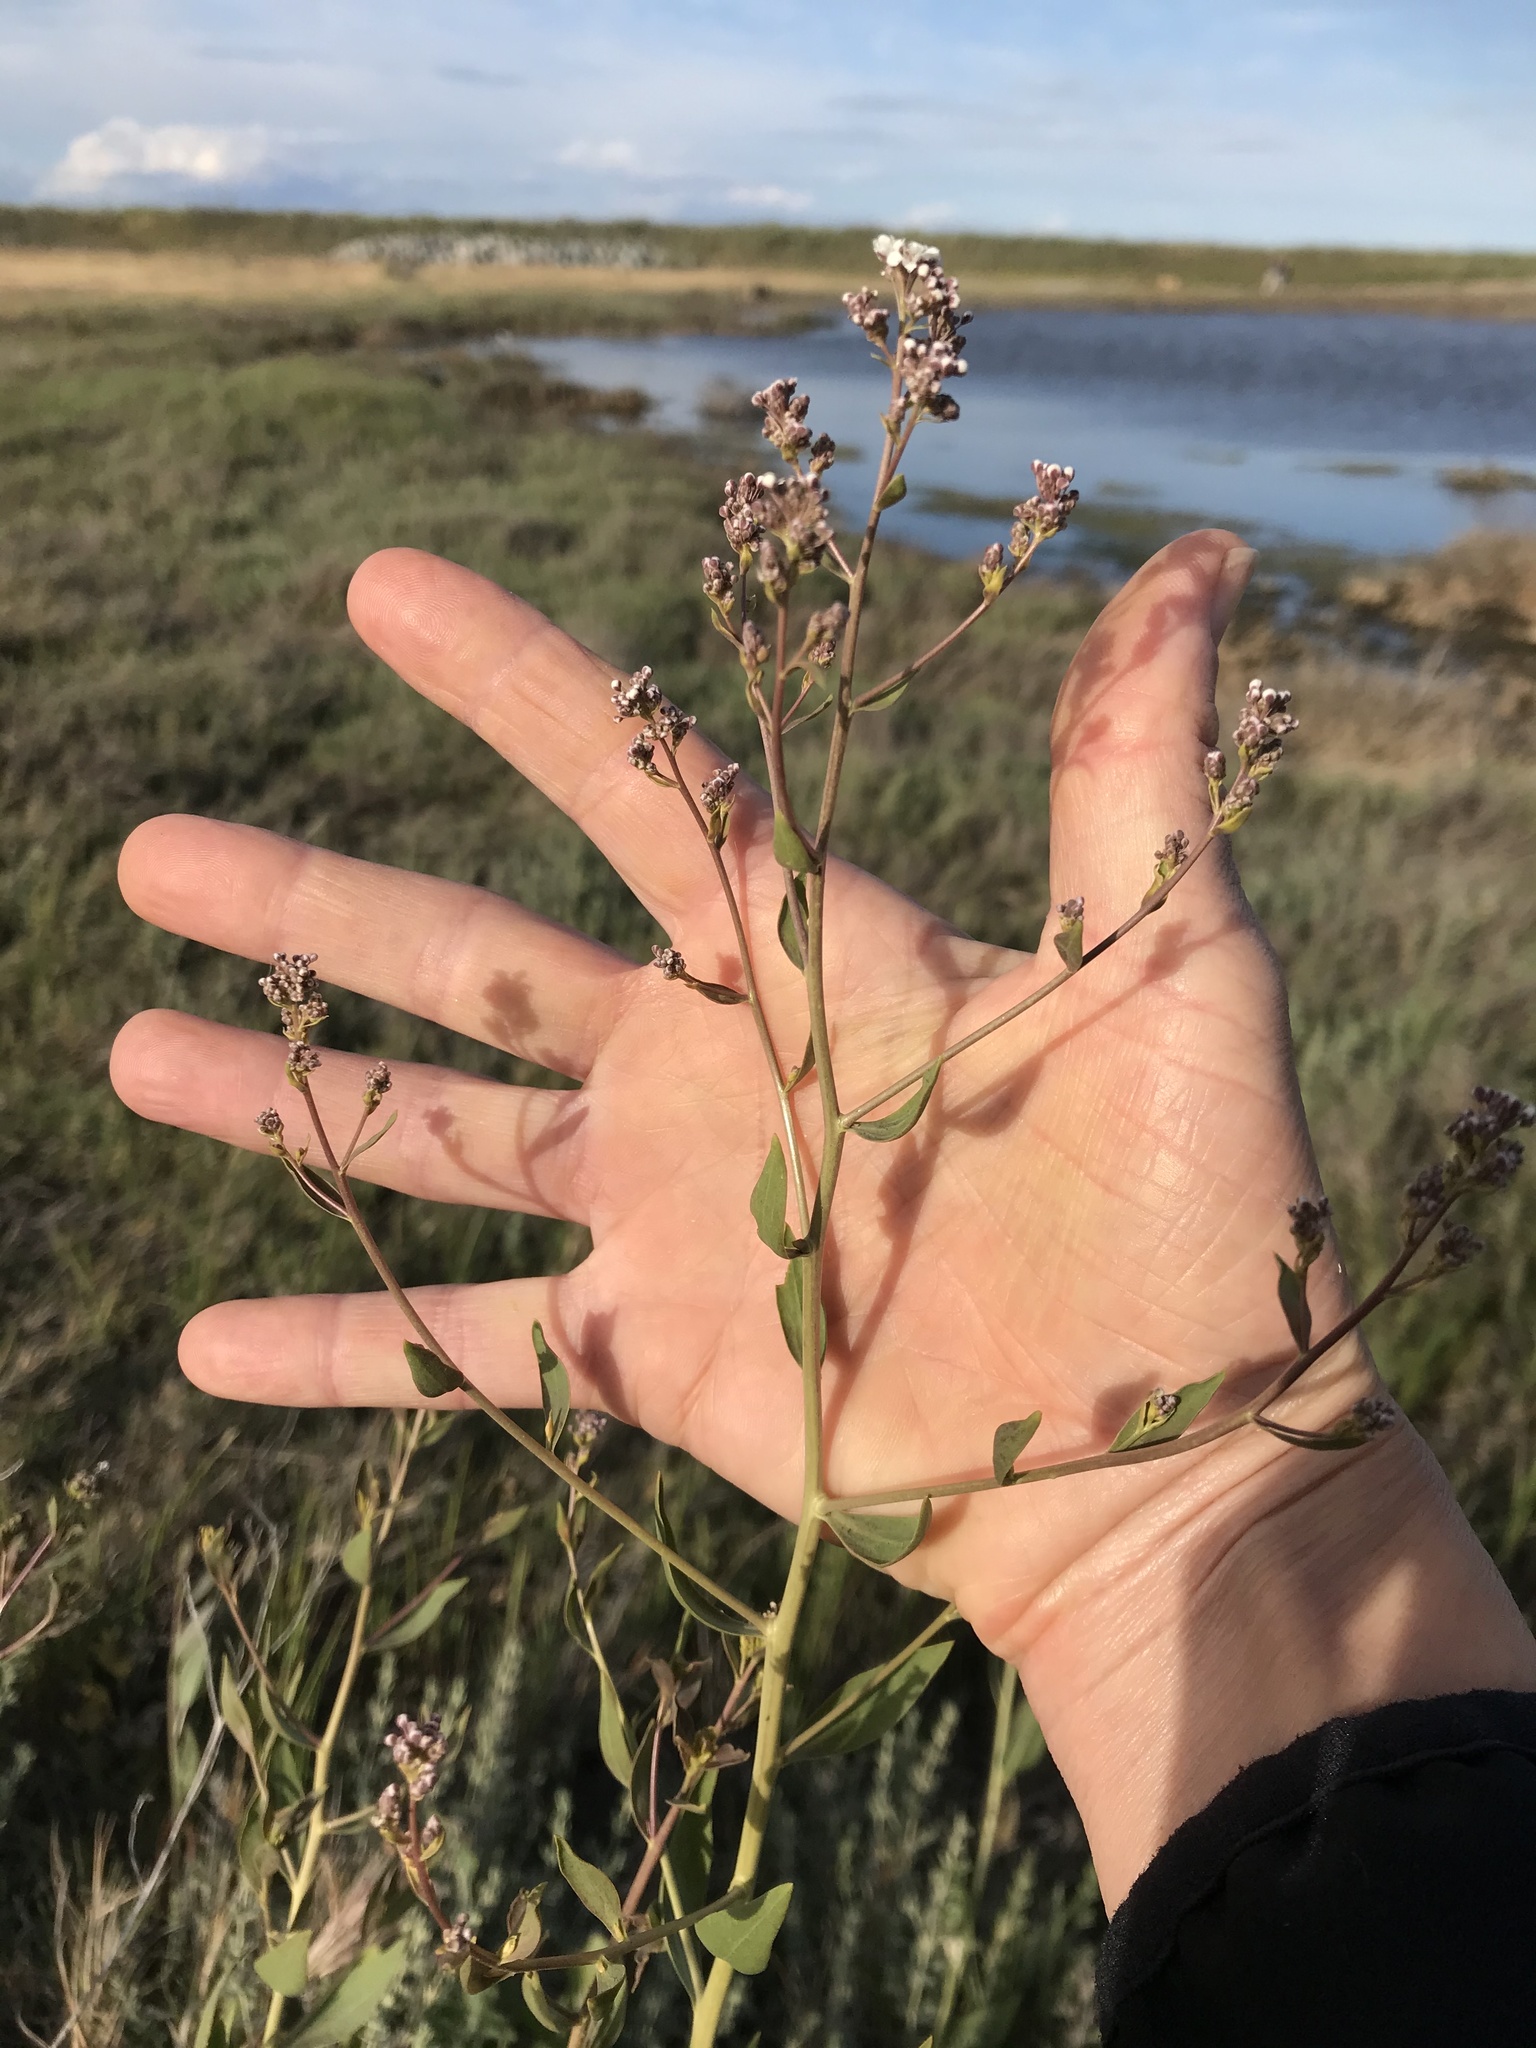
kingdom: Plantae
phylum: Tracheophyta
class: Magnoliopsida
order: Brassicales
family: Brassicaceae
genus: Lepidium
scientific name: Lepidium latifolium
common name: Dittander
